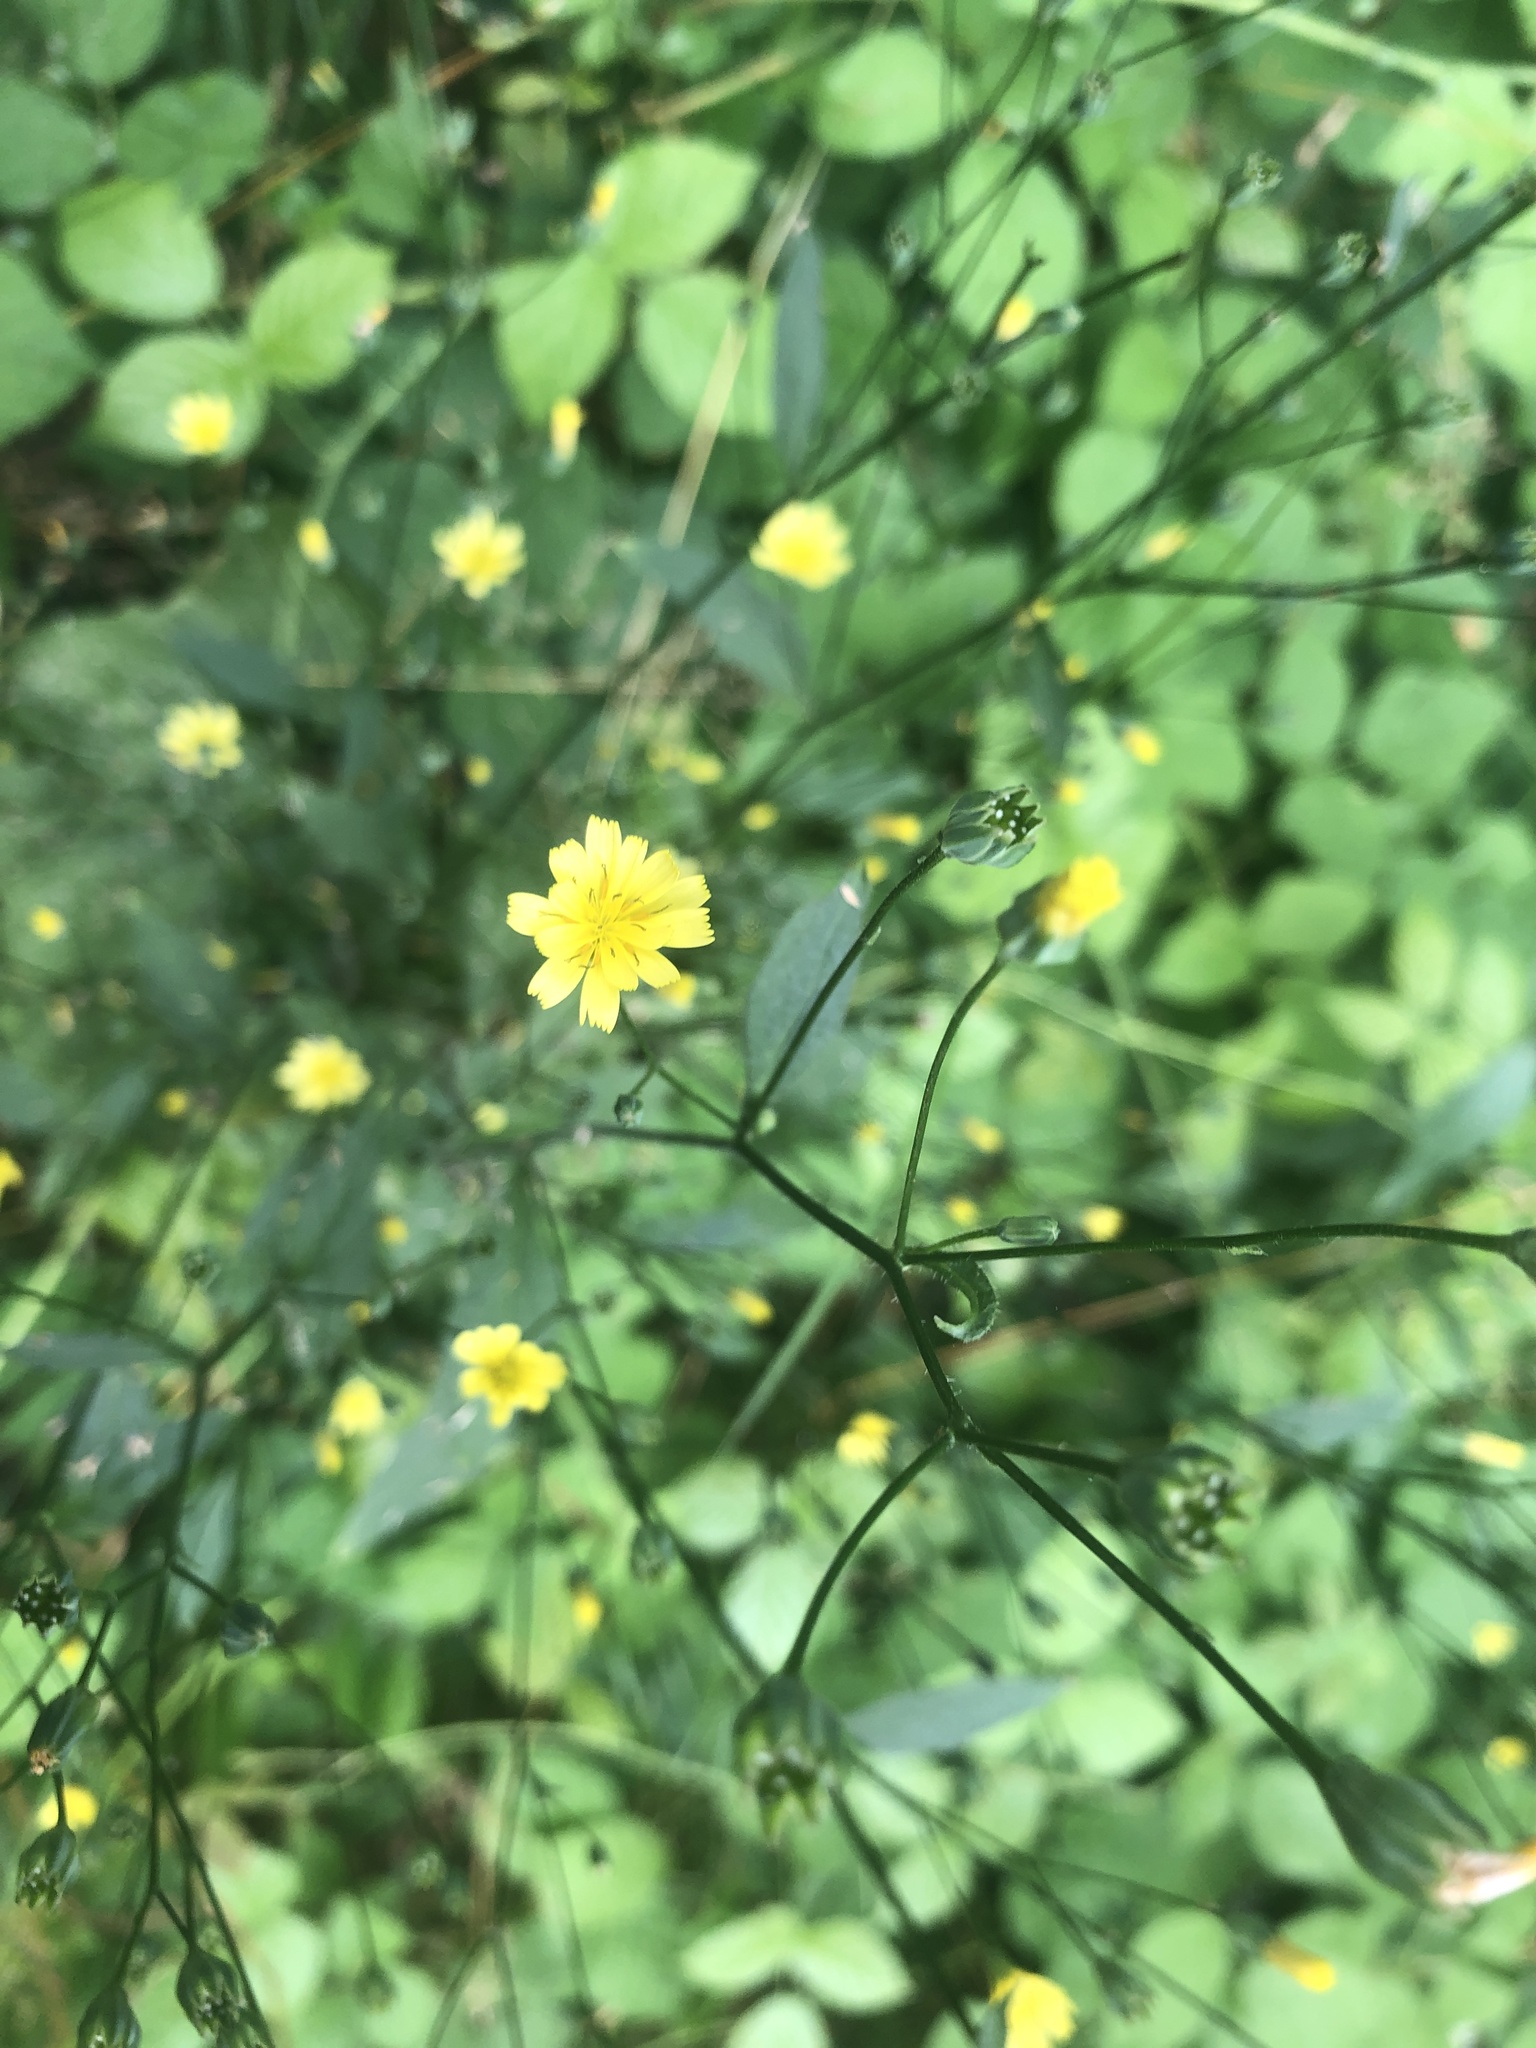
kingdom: Plantae
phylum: Tracheophyta
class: Magnoliopsida
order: Asterales
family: Asteraceae
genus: Lapsana
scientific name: Lapsana communis
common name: Nipplewort
